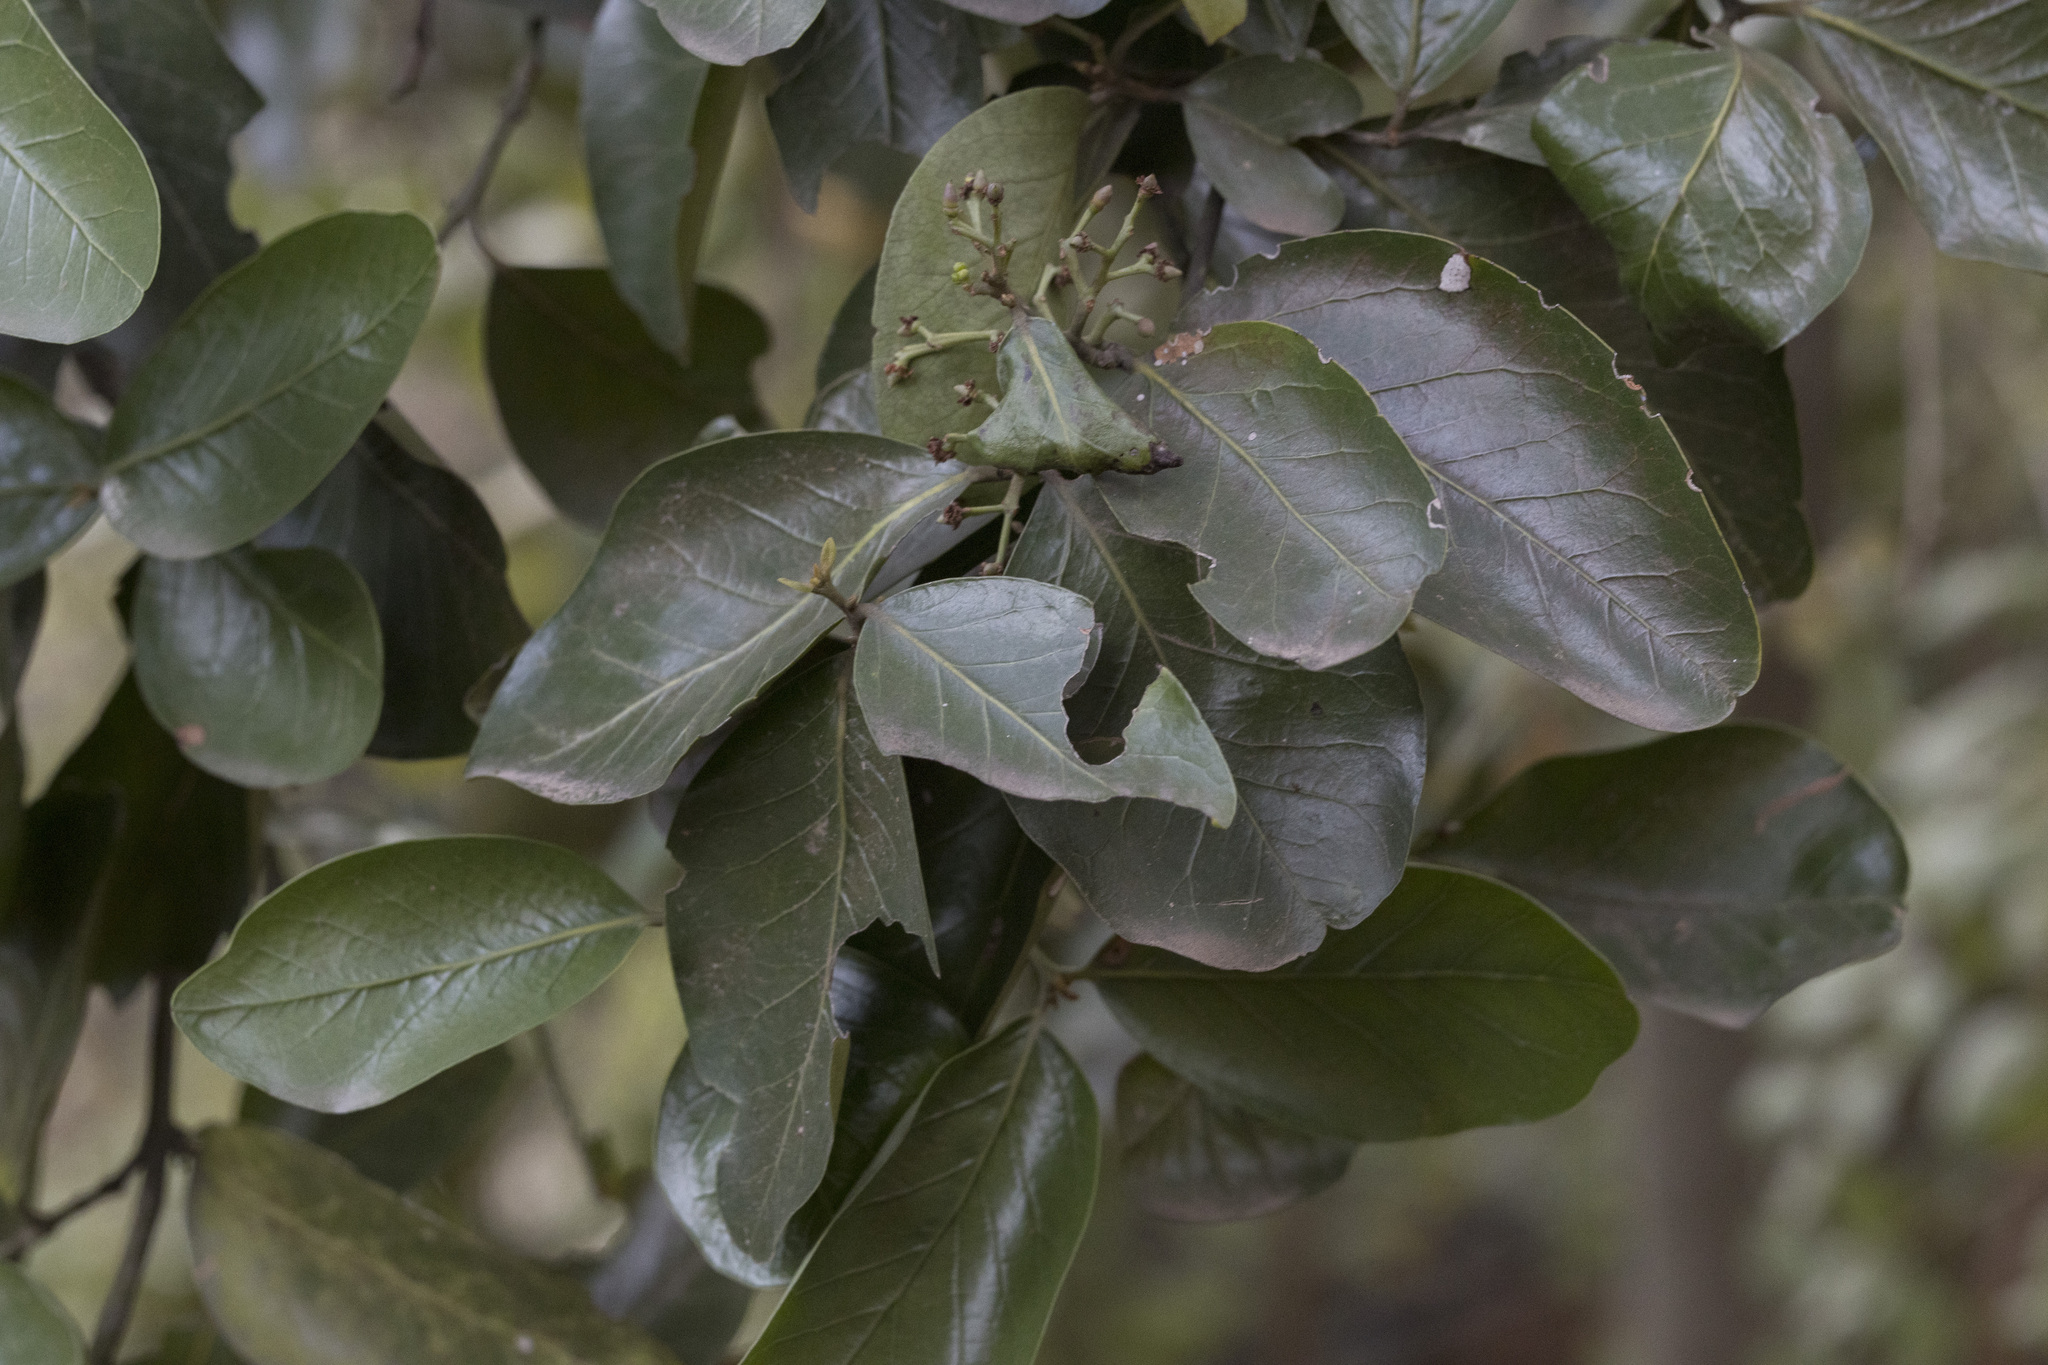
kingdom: Plantae
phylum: Tracheophyta
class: Magnoliopsida
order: Laurales
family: Lauraceae
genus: Beilschmiedia
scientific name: Beilschmiedia berteroana
